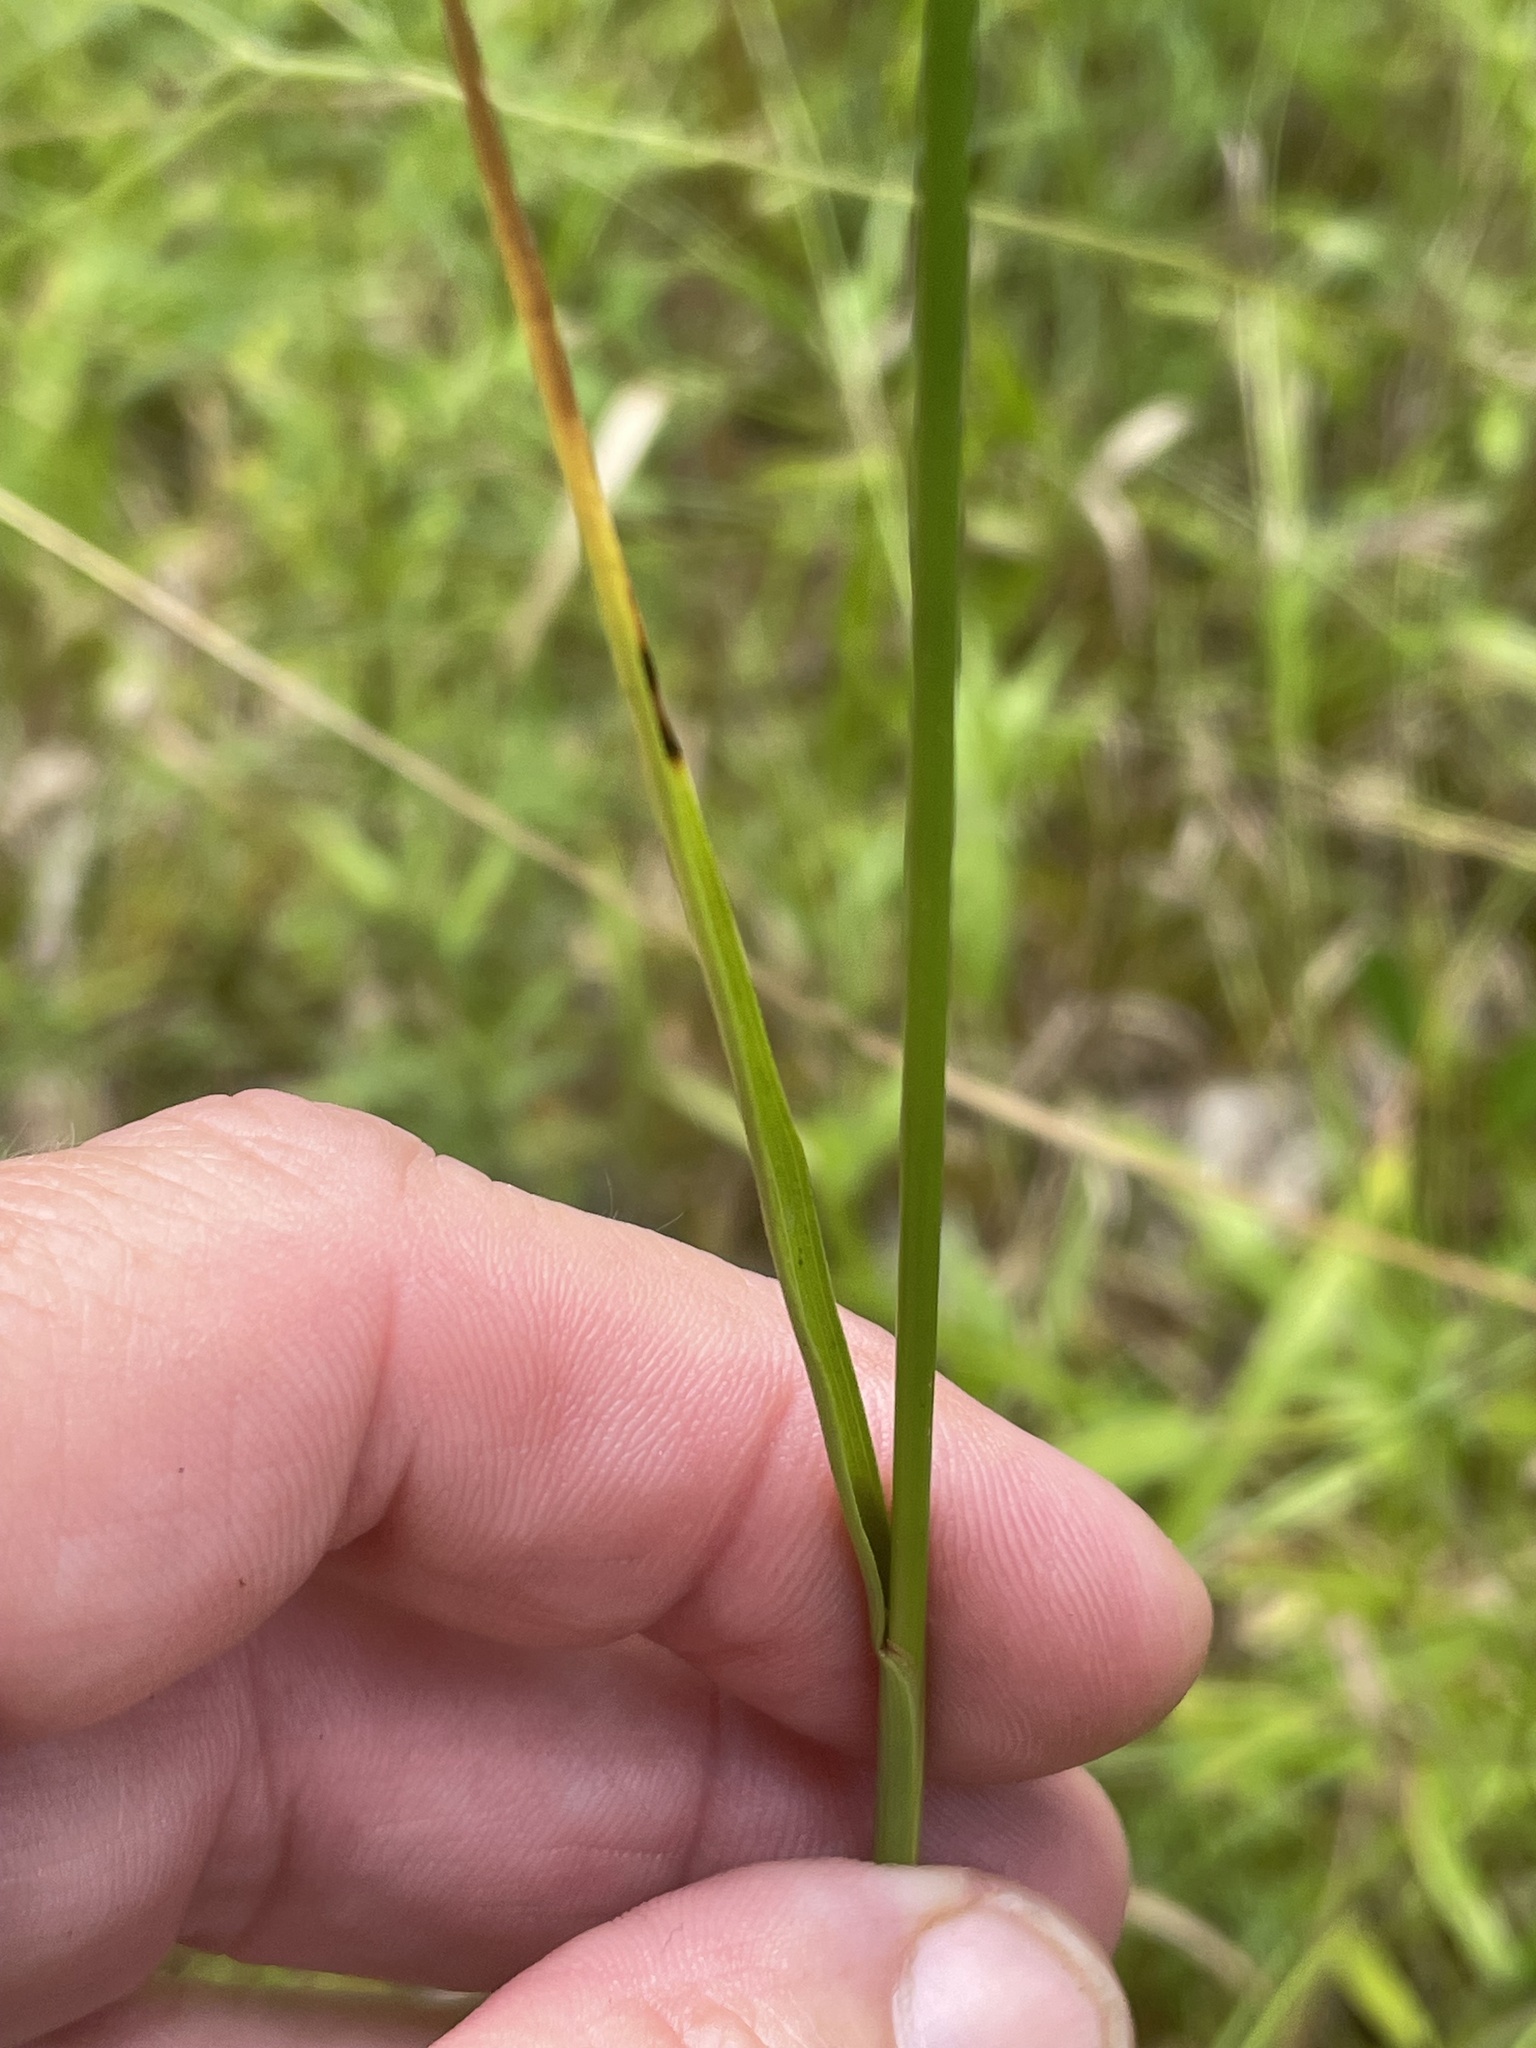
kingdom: Plantae
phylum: Tracheophyta
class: Liliopsida
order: Poales
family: Juncaceae
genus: Juncus
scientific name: Juncus biflorus
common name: Two-flowered rush
